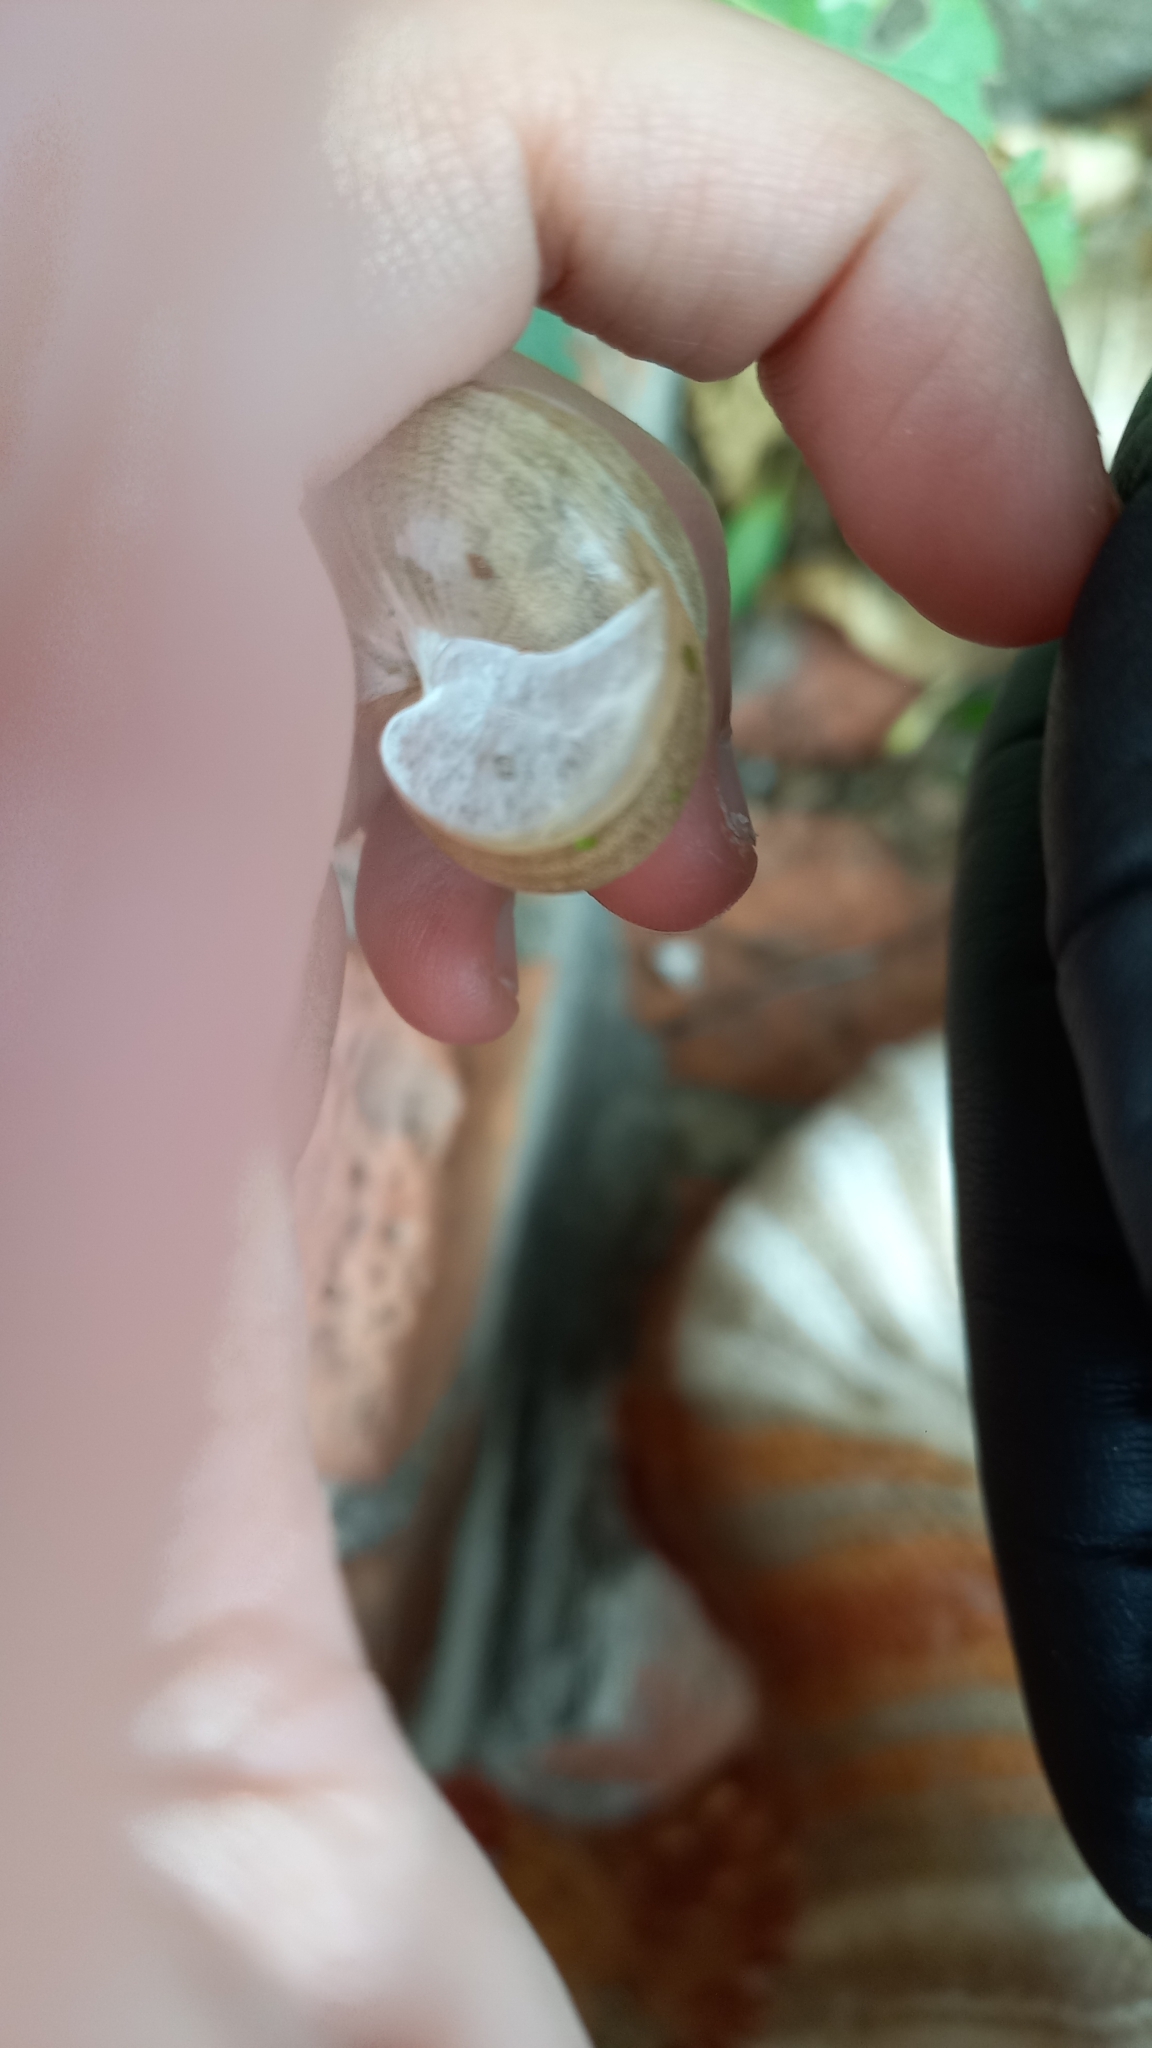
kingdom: Animalia
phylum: Mollusca
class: Gastropoda
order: Stylommatophora
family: Helicidae
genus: Eobania
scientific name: Eobania vermiculata
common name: Chocolateband snail
